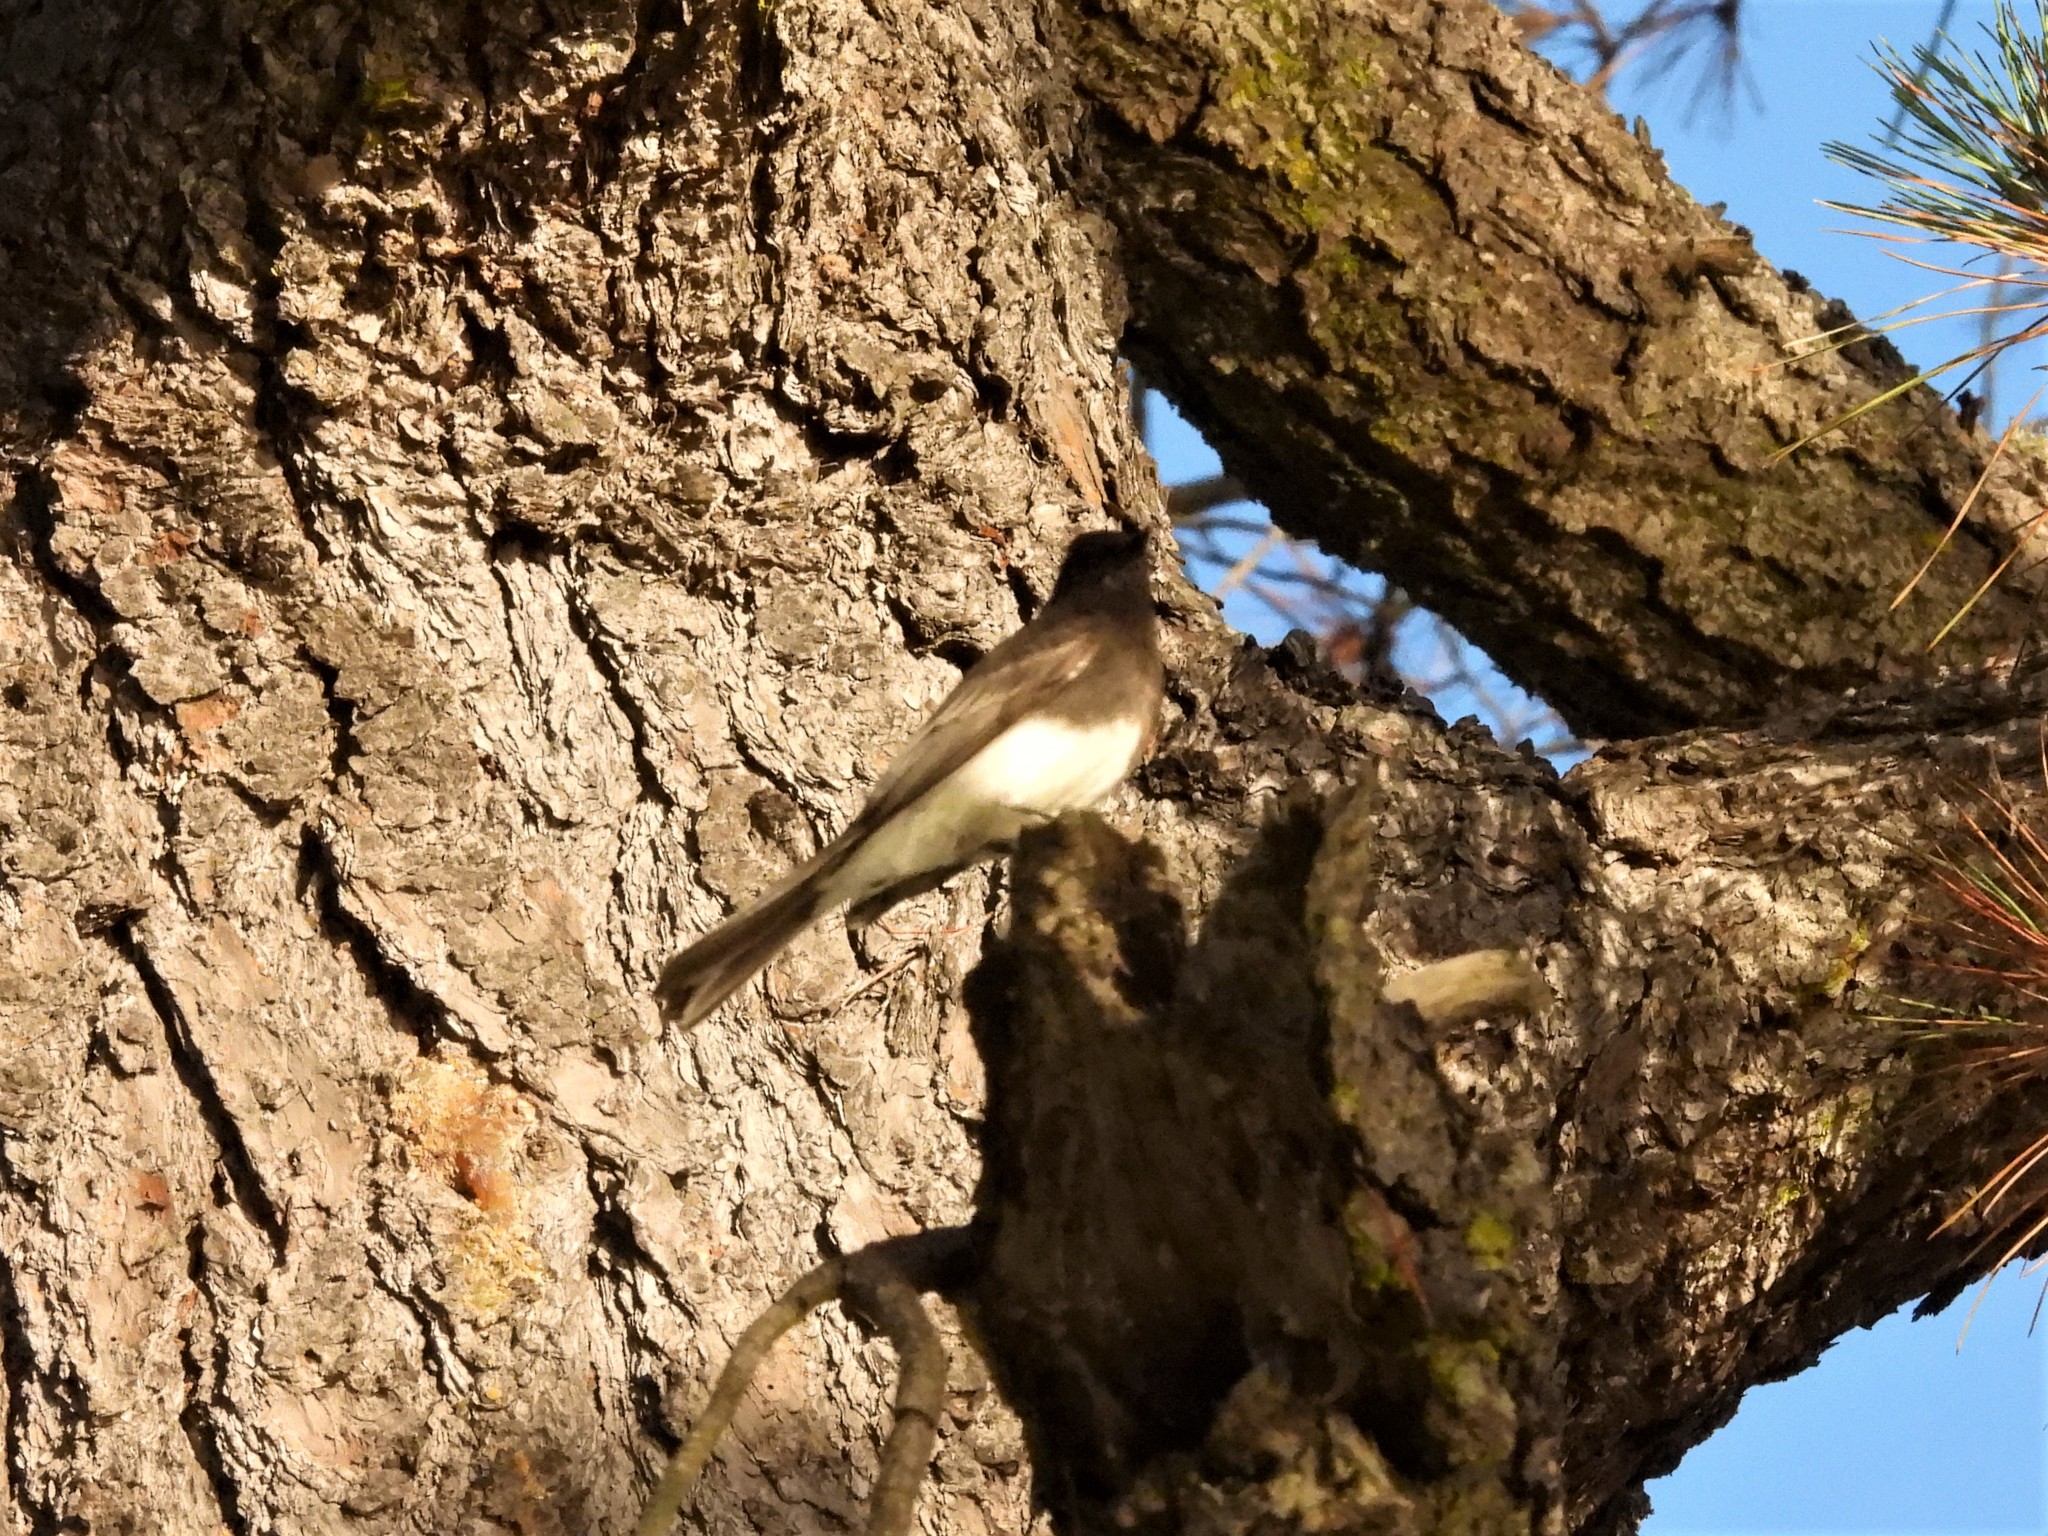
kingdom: Animalia
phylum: Chordata
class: Aves
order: Passeriformes
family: Tyrannidae
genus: Sayornis
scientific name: Sayornis nigricans
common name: Black phoebe
